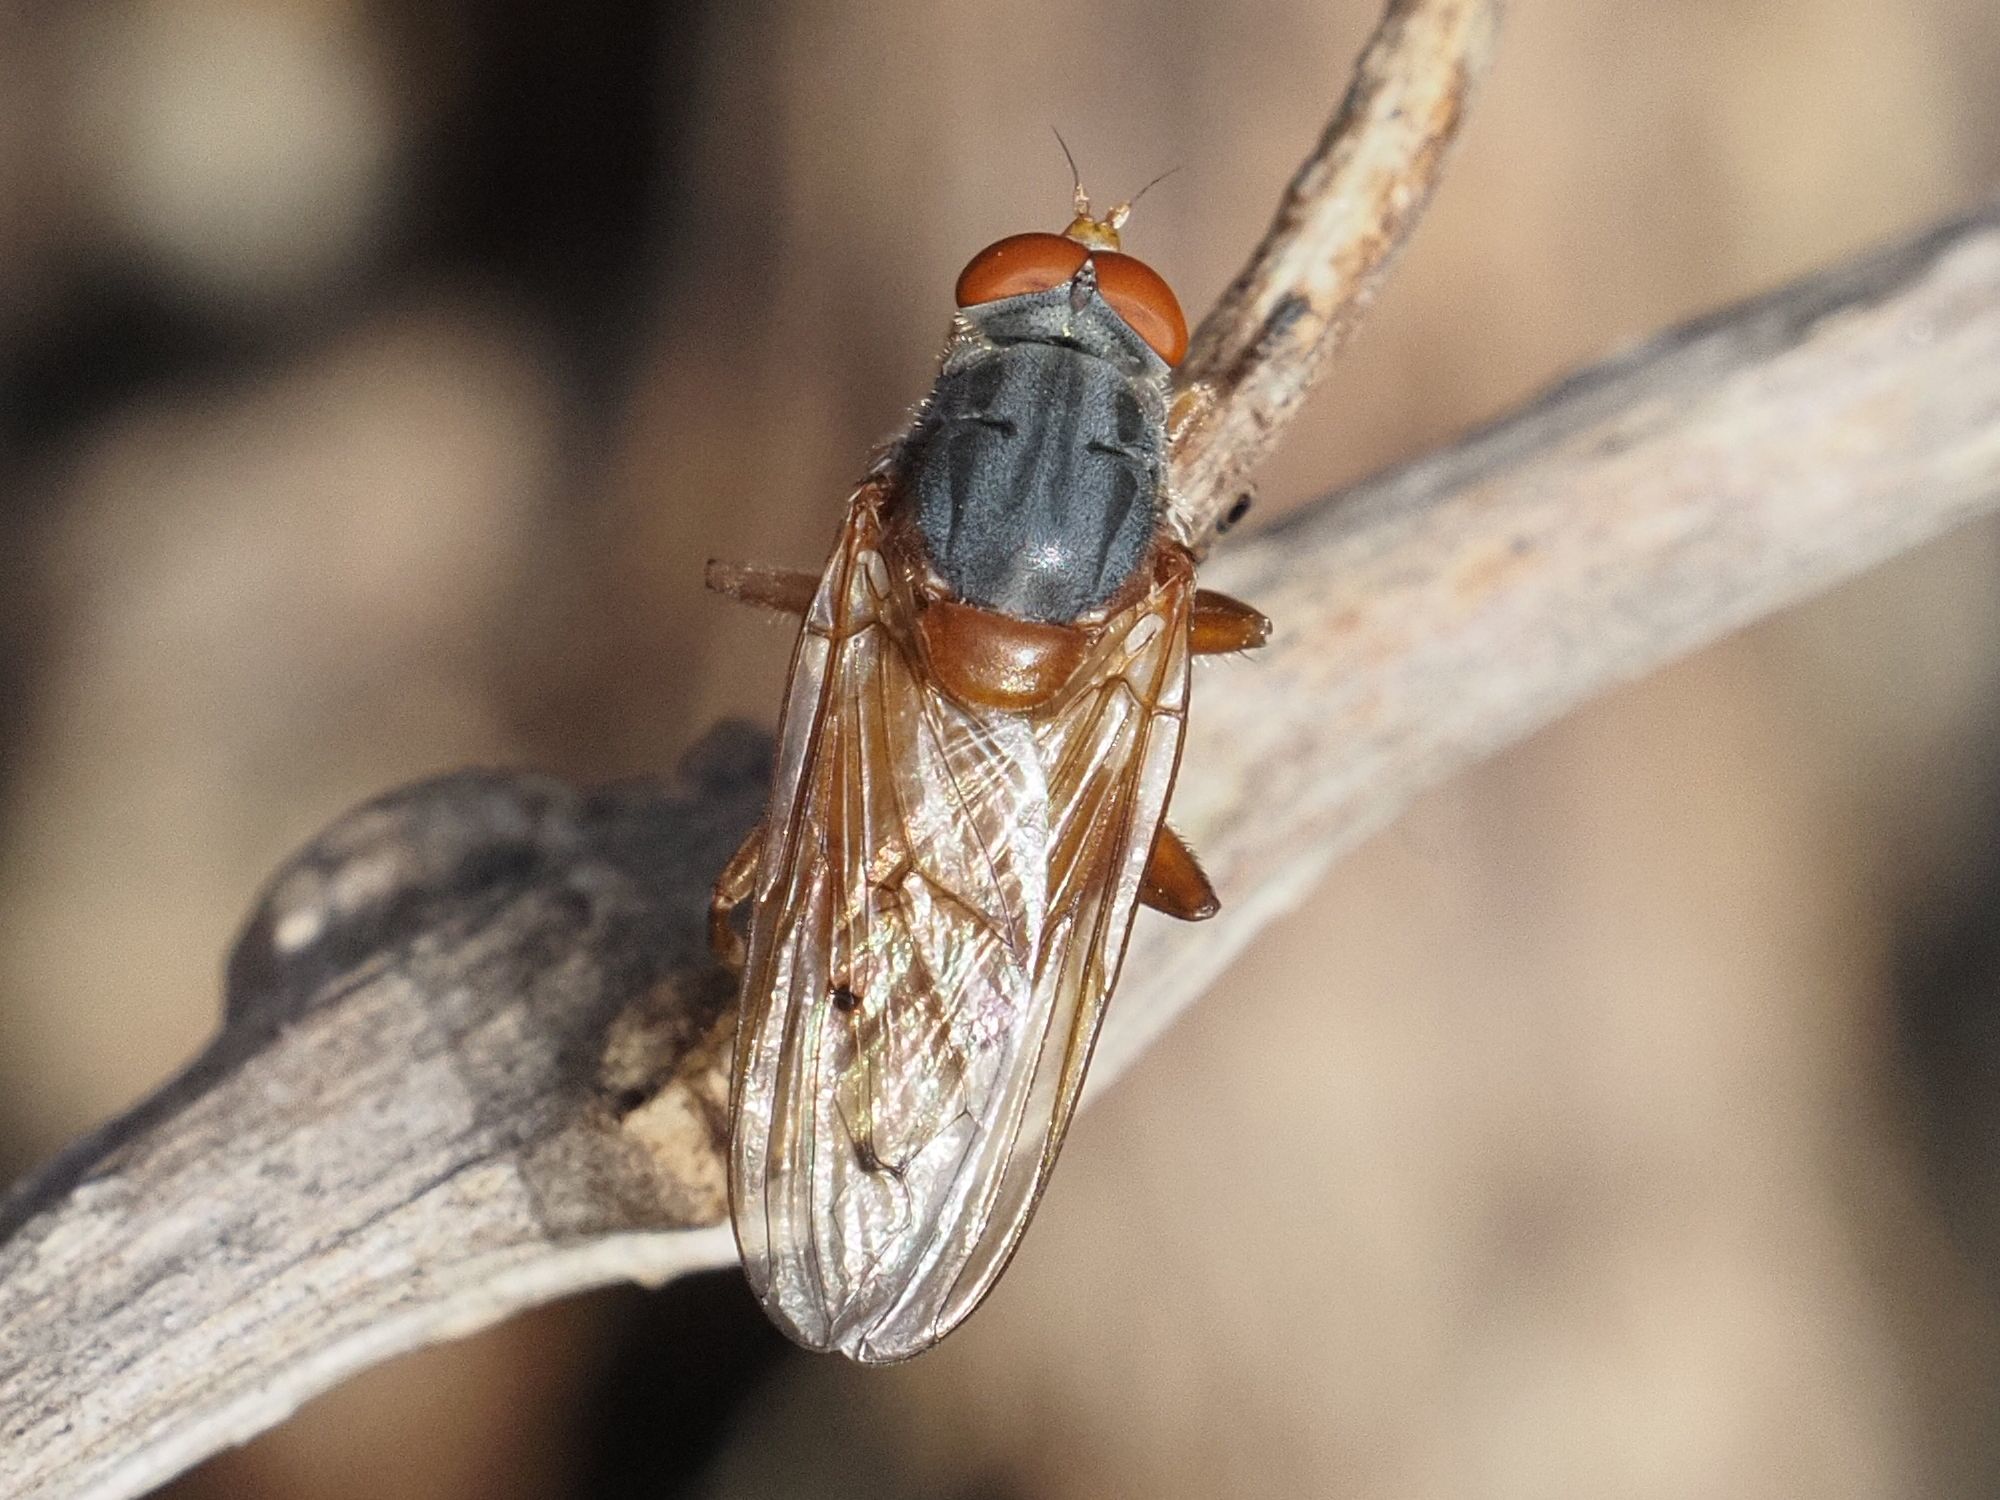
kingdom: Animalia
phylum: Arthropoda
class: Insecta
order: Diptera
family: Syrphidae
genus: Brachyopa
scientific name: Brachyopa maculipennis
